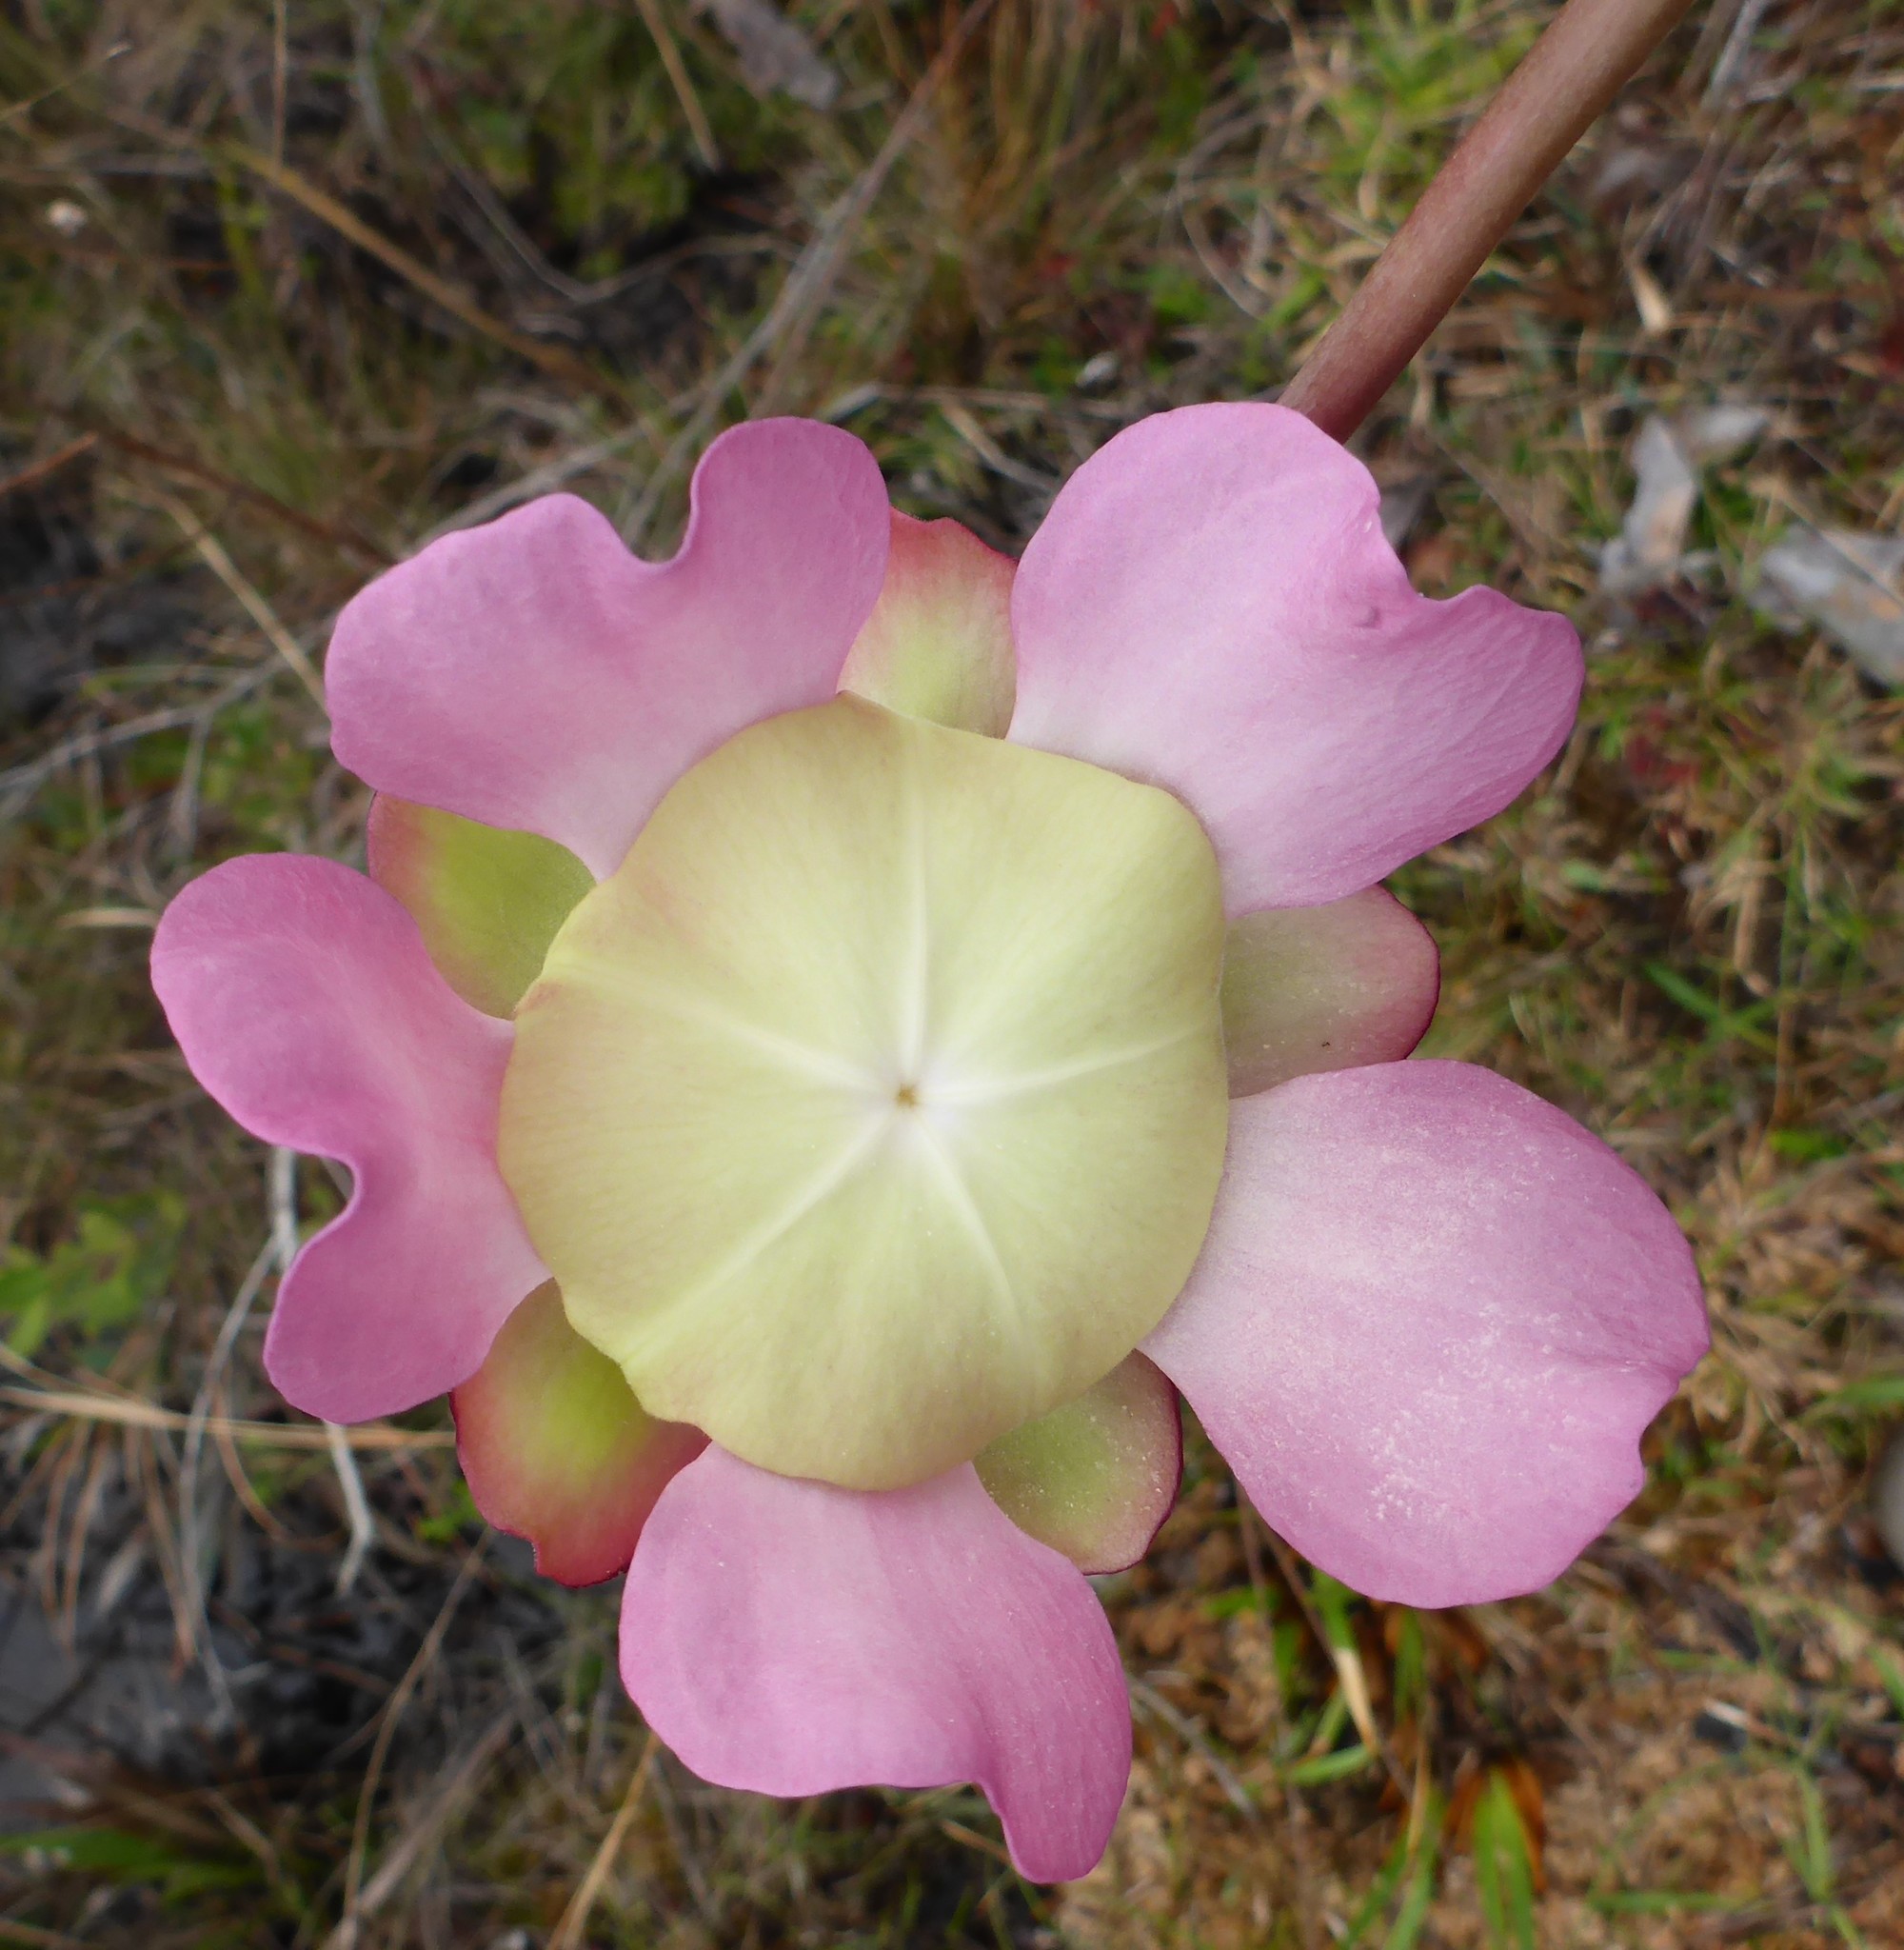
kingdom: Plantae
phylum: Tracheophyta
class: Magnoliopsida
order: Ericales
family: Sarraceniaceae
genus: Sarracenia
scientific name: Sarracenia rosea
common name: Pink pitcherplant
